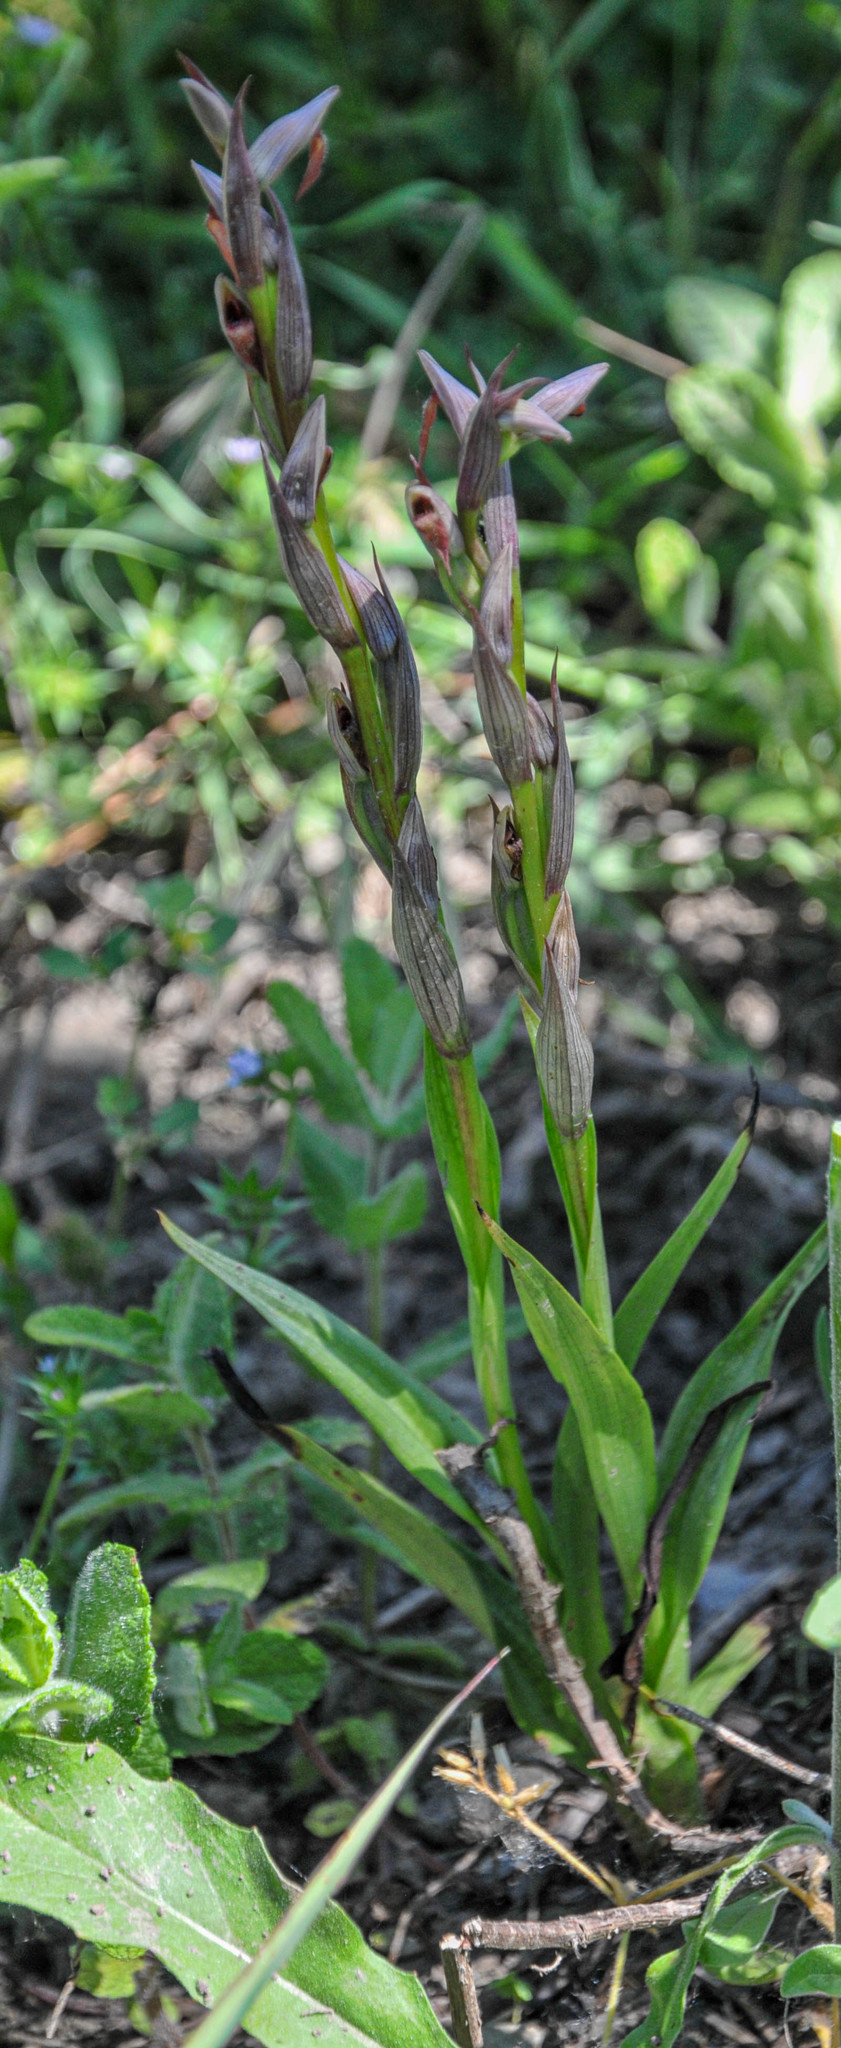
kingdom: Plantae
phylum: Tracheophyta
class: Liliopsida
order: Asparagales
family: Orchidaceae
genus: Serapias
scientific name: Serapias parviflora
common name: Small-flowered tongue-orchid
